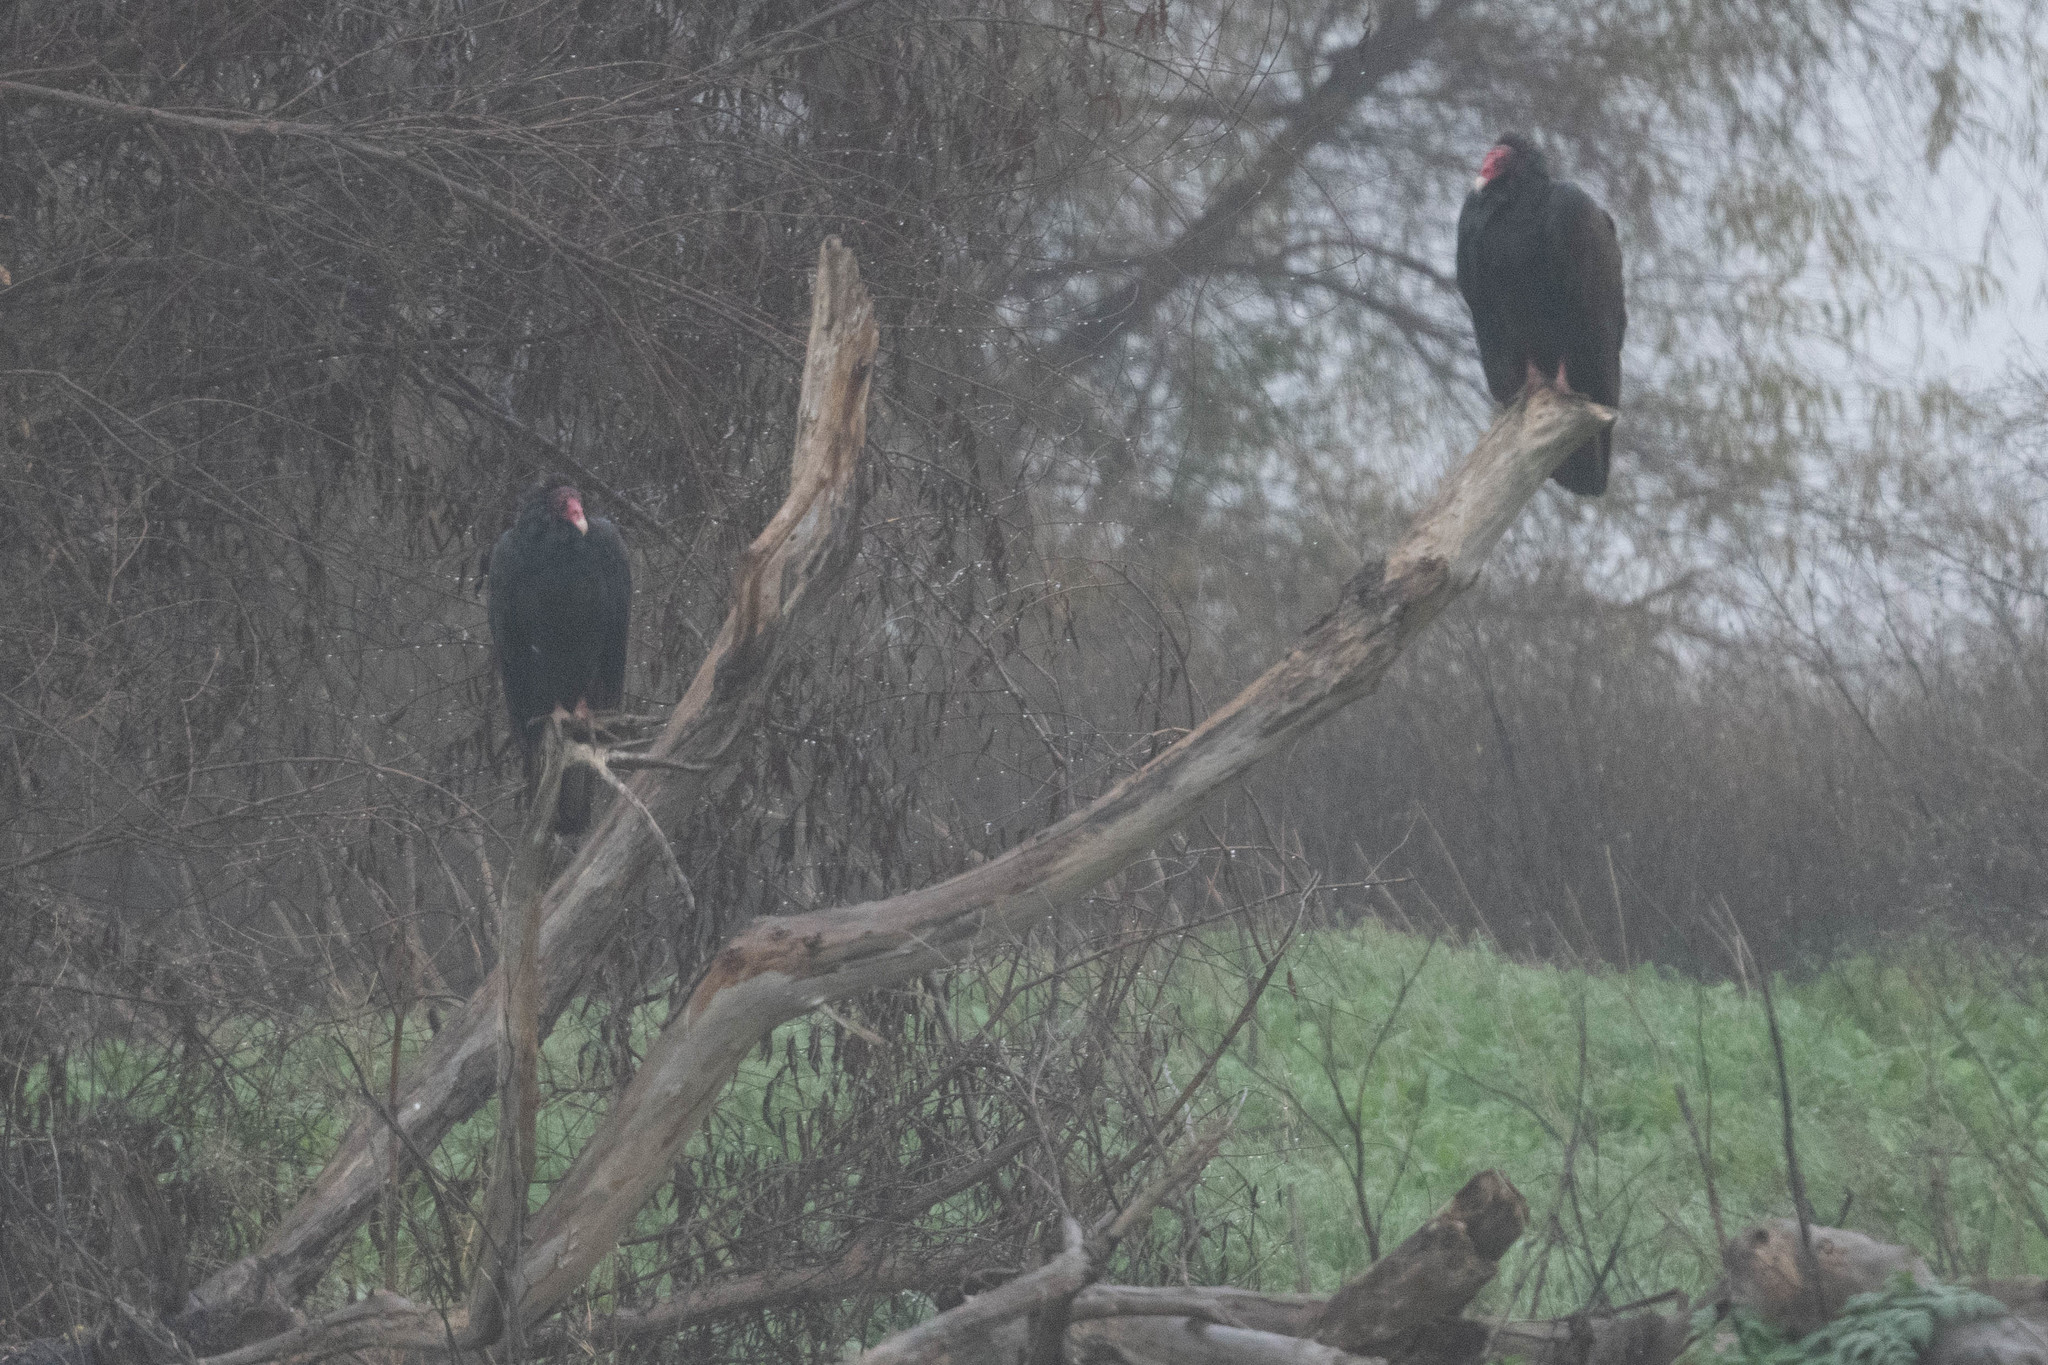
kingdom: Animalia
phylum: Chordata
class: Aves
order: Accipitriformes
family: Cathartidae
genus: Cathartes
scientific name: Cathartes aura
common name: Turkey vulture
